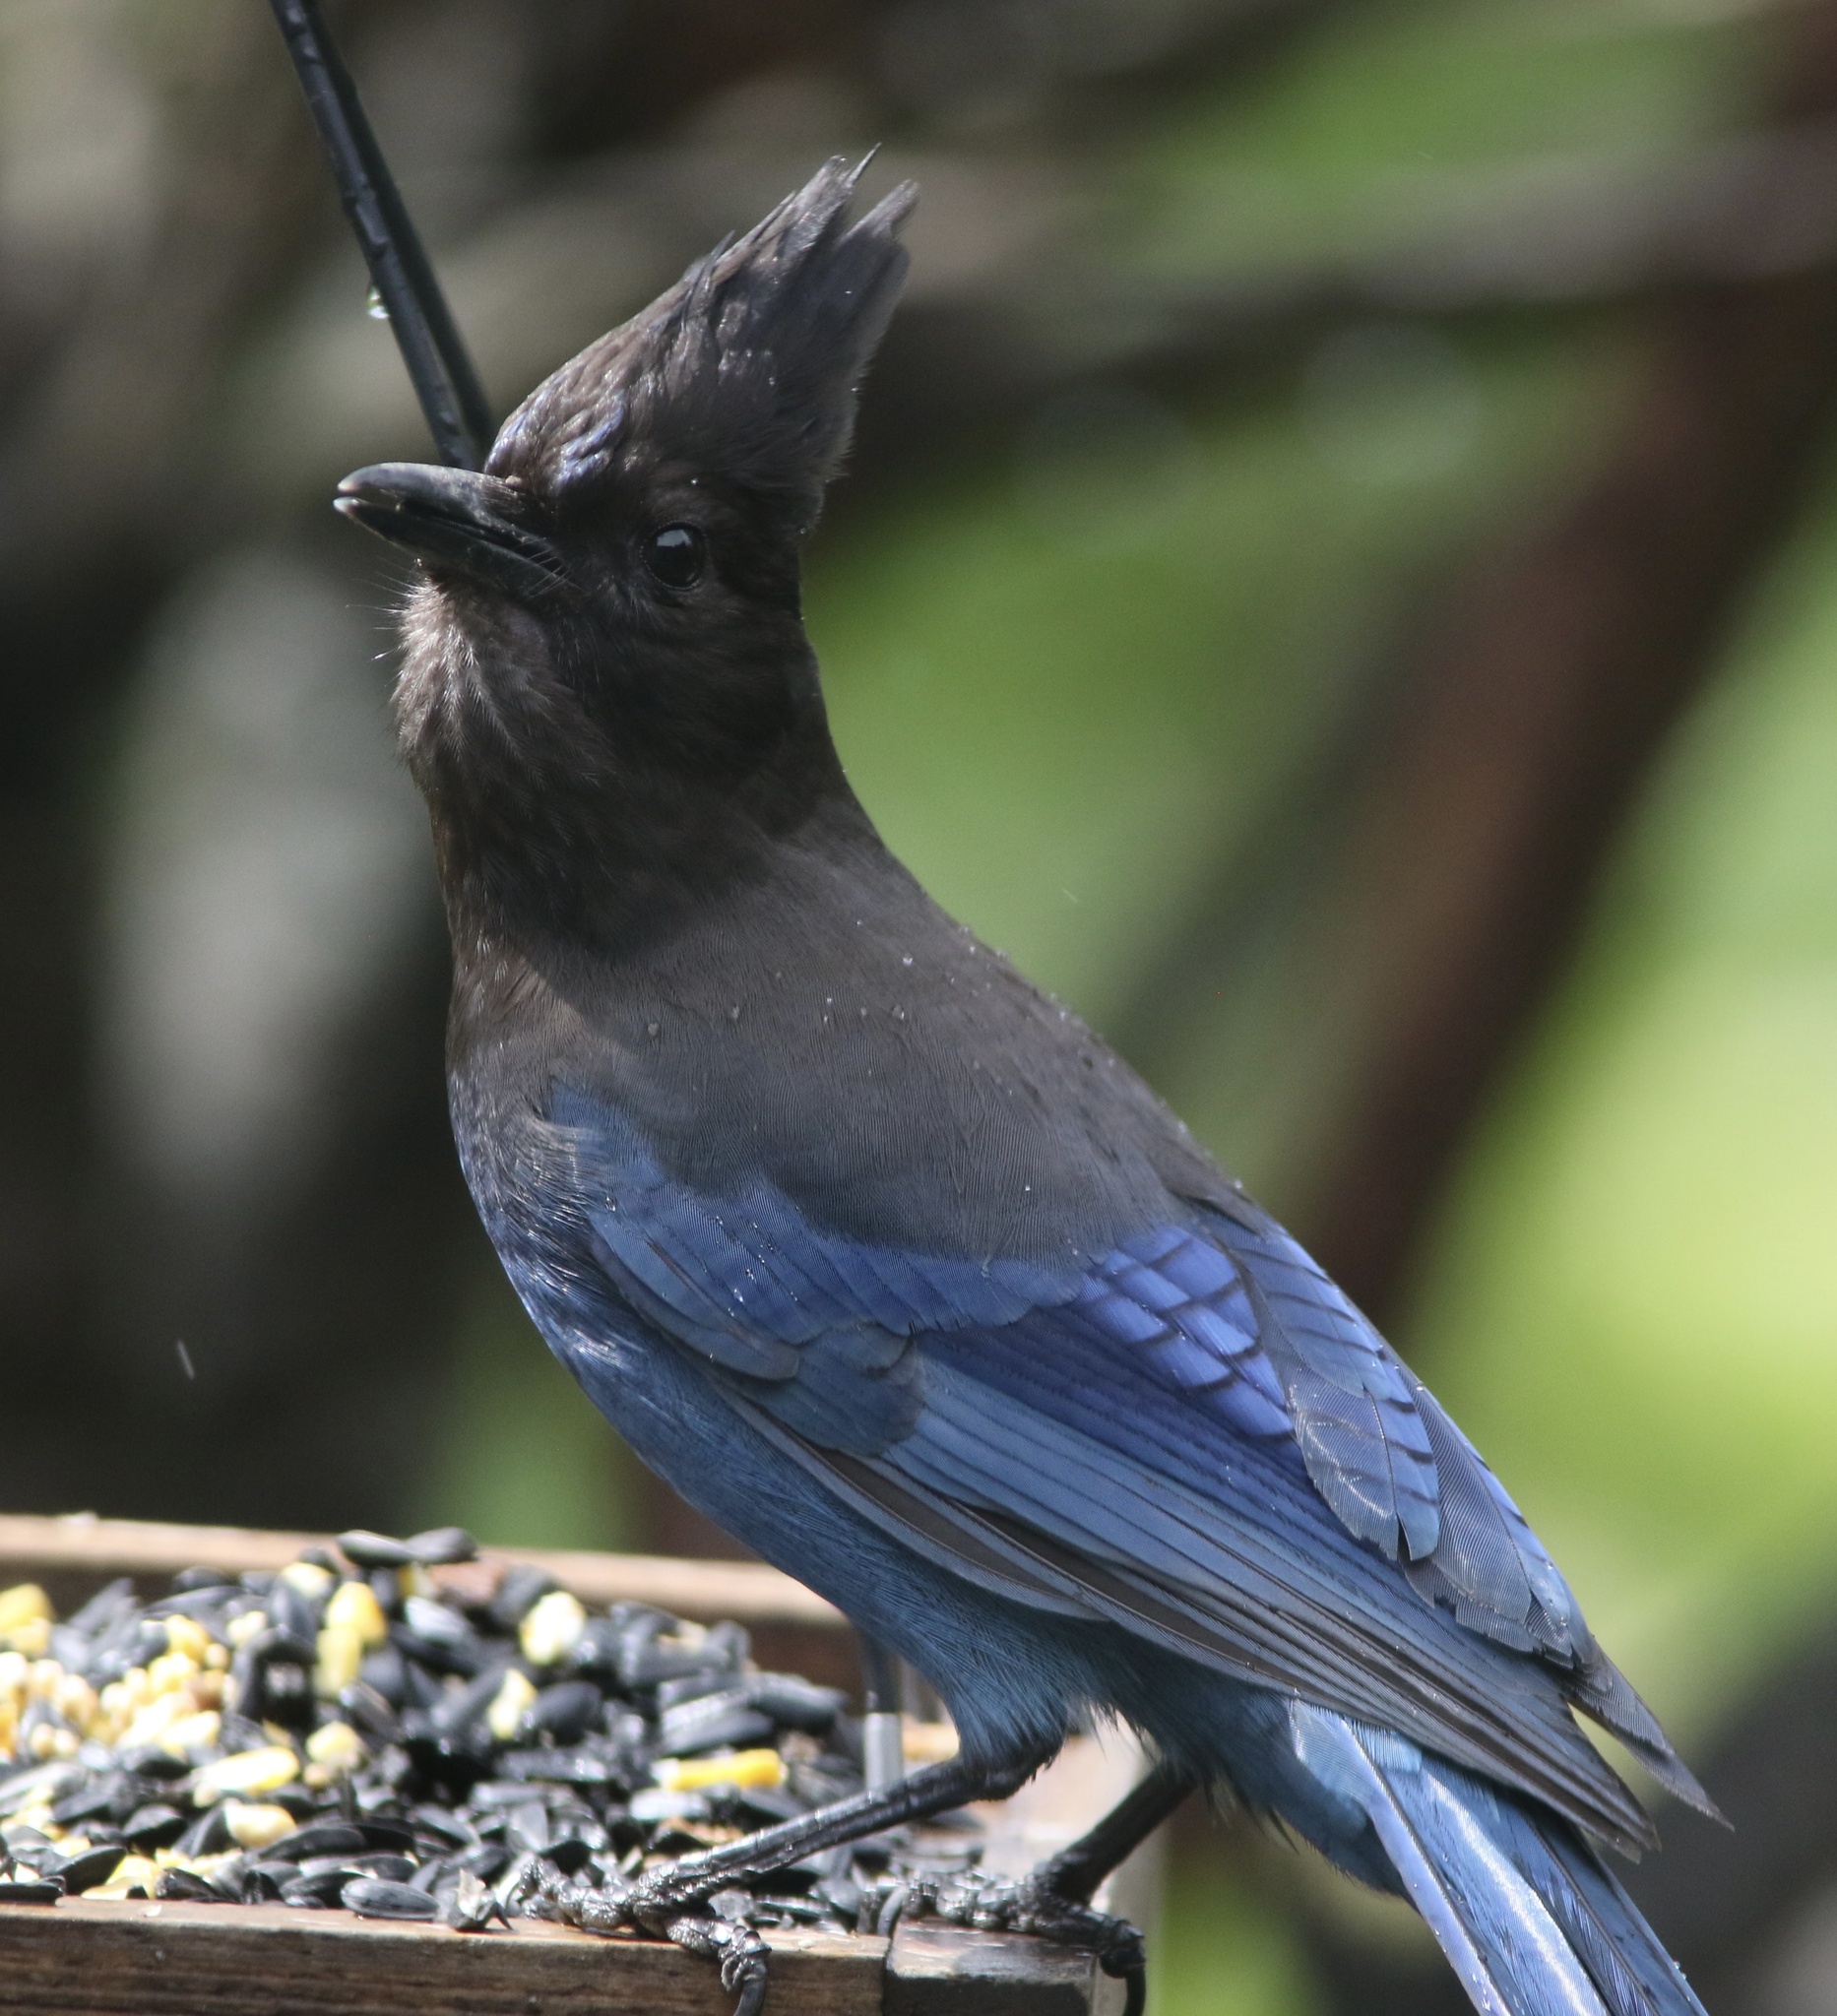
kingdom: Animalia
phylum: Chordata
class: Aves
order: Passeriformes
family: Corvidae
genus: Cyanocitta
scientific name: Cyanocitta stelleri
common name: Steller's jay
